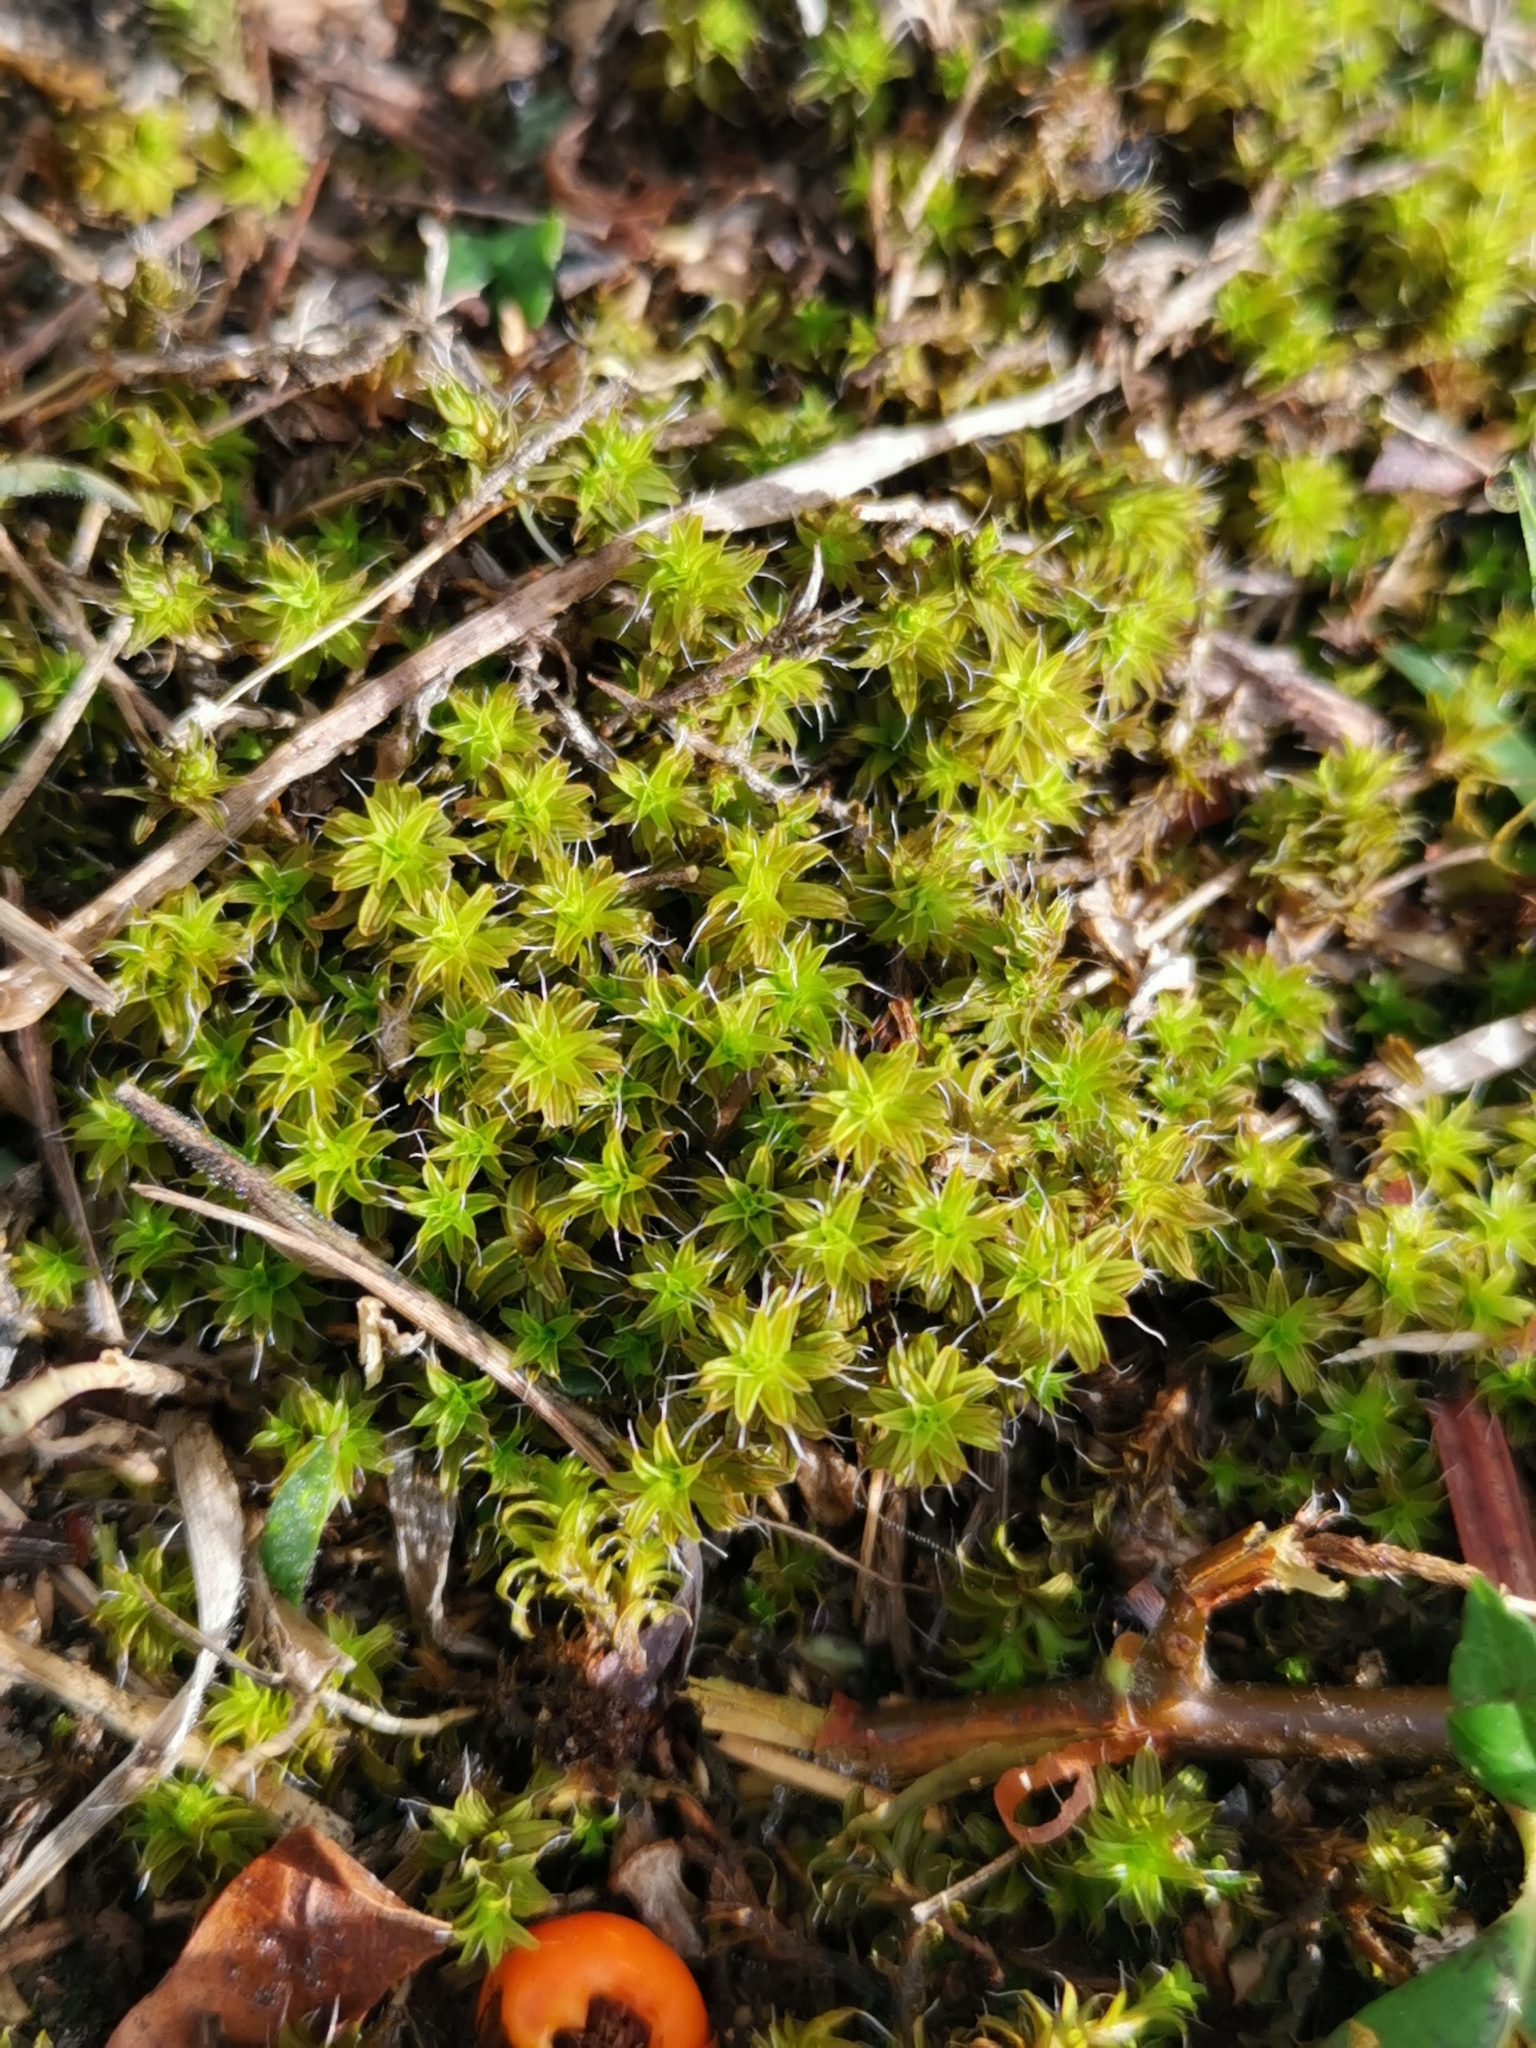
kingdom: Plantae
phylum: Bryophyta
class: Bryopsida
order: Pottiales
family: Pottiaceae
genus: Syntrichia
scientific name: Syntrichia ruralis
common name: Sidewalk screw moss
